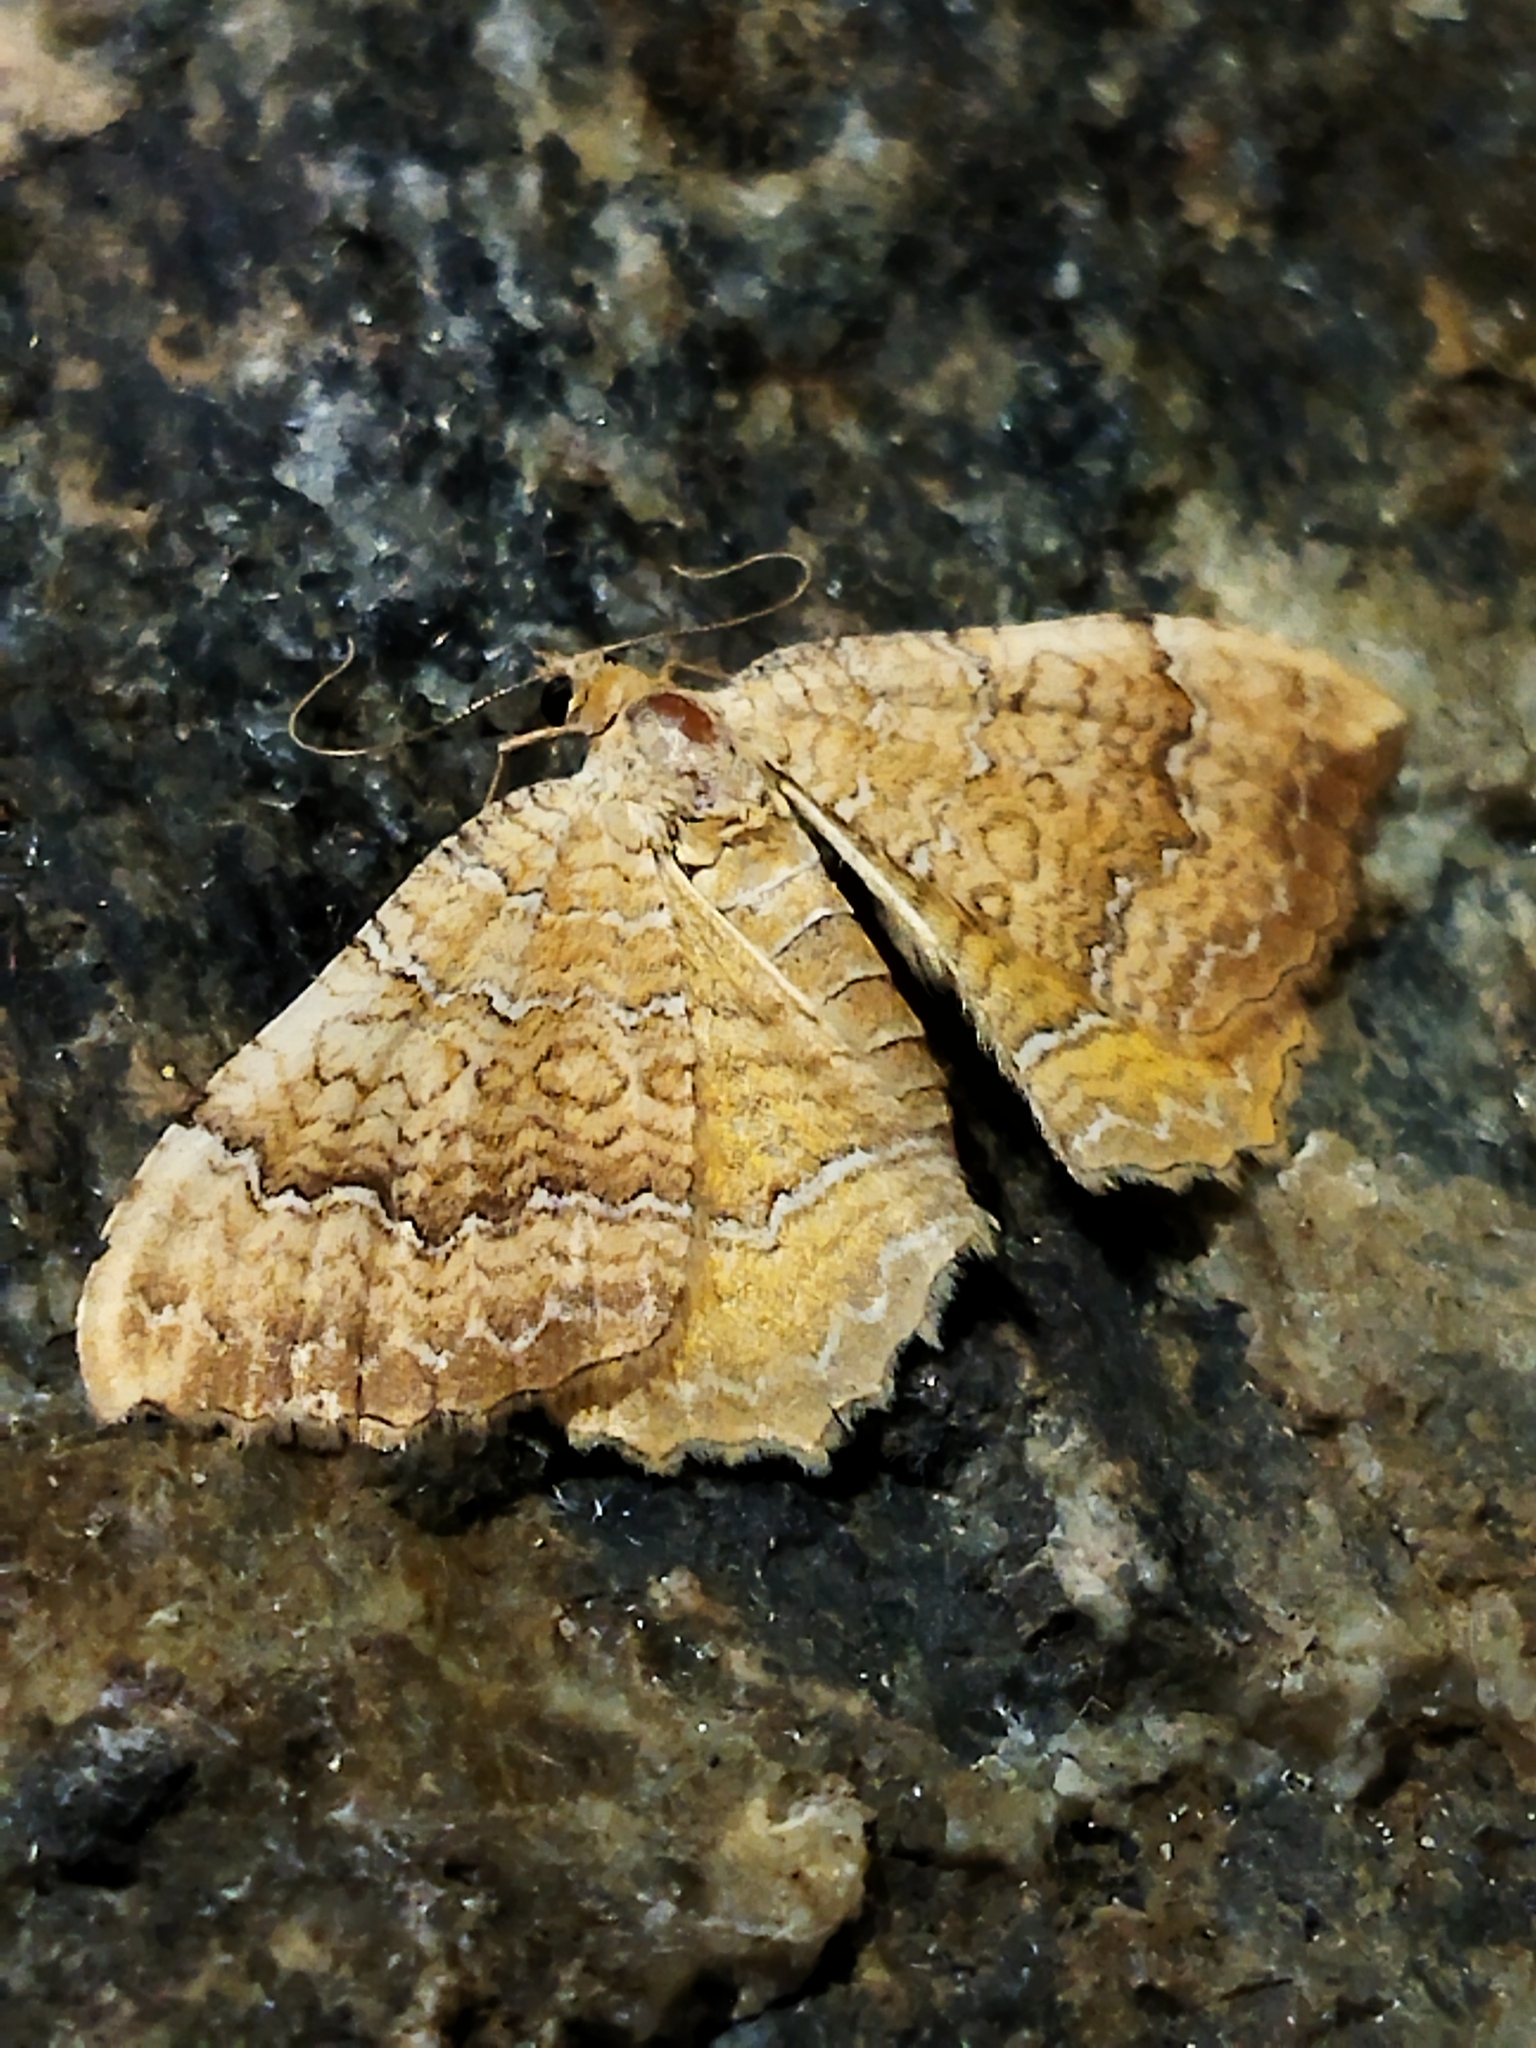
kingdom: Animalia
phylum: Arthropoda
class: Insecta
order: Lepidoptera
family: Geometridae
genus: Camptogramma
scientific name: Camptogramma bilineata
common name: Yellow shell
